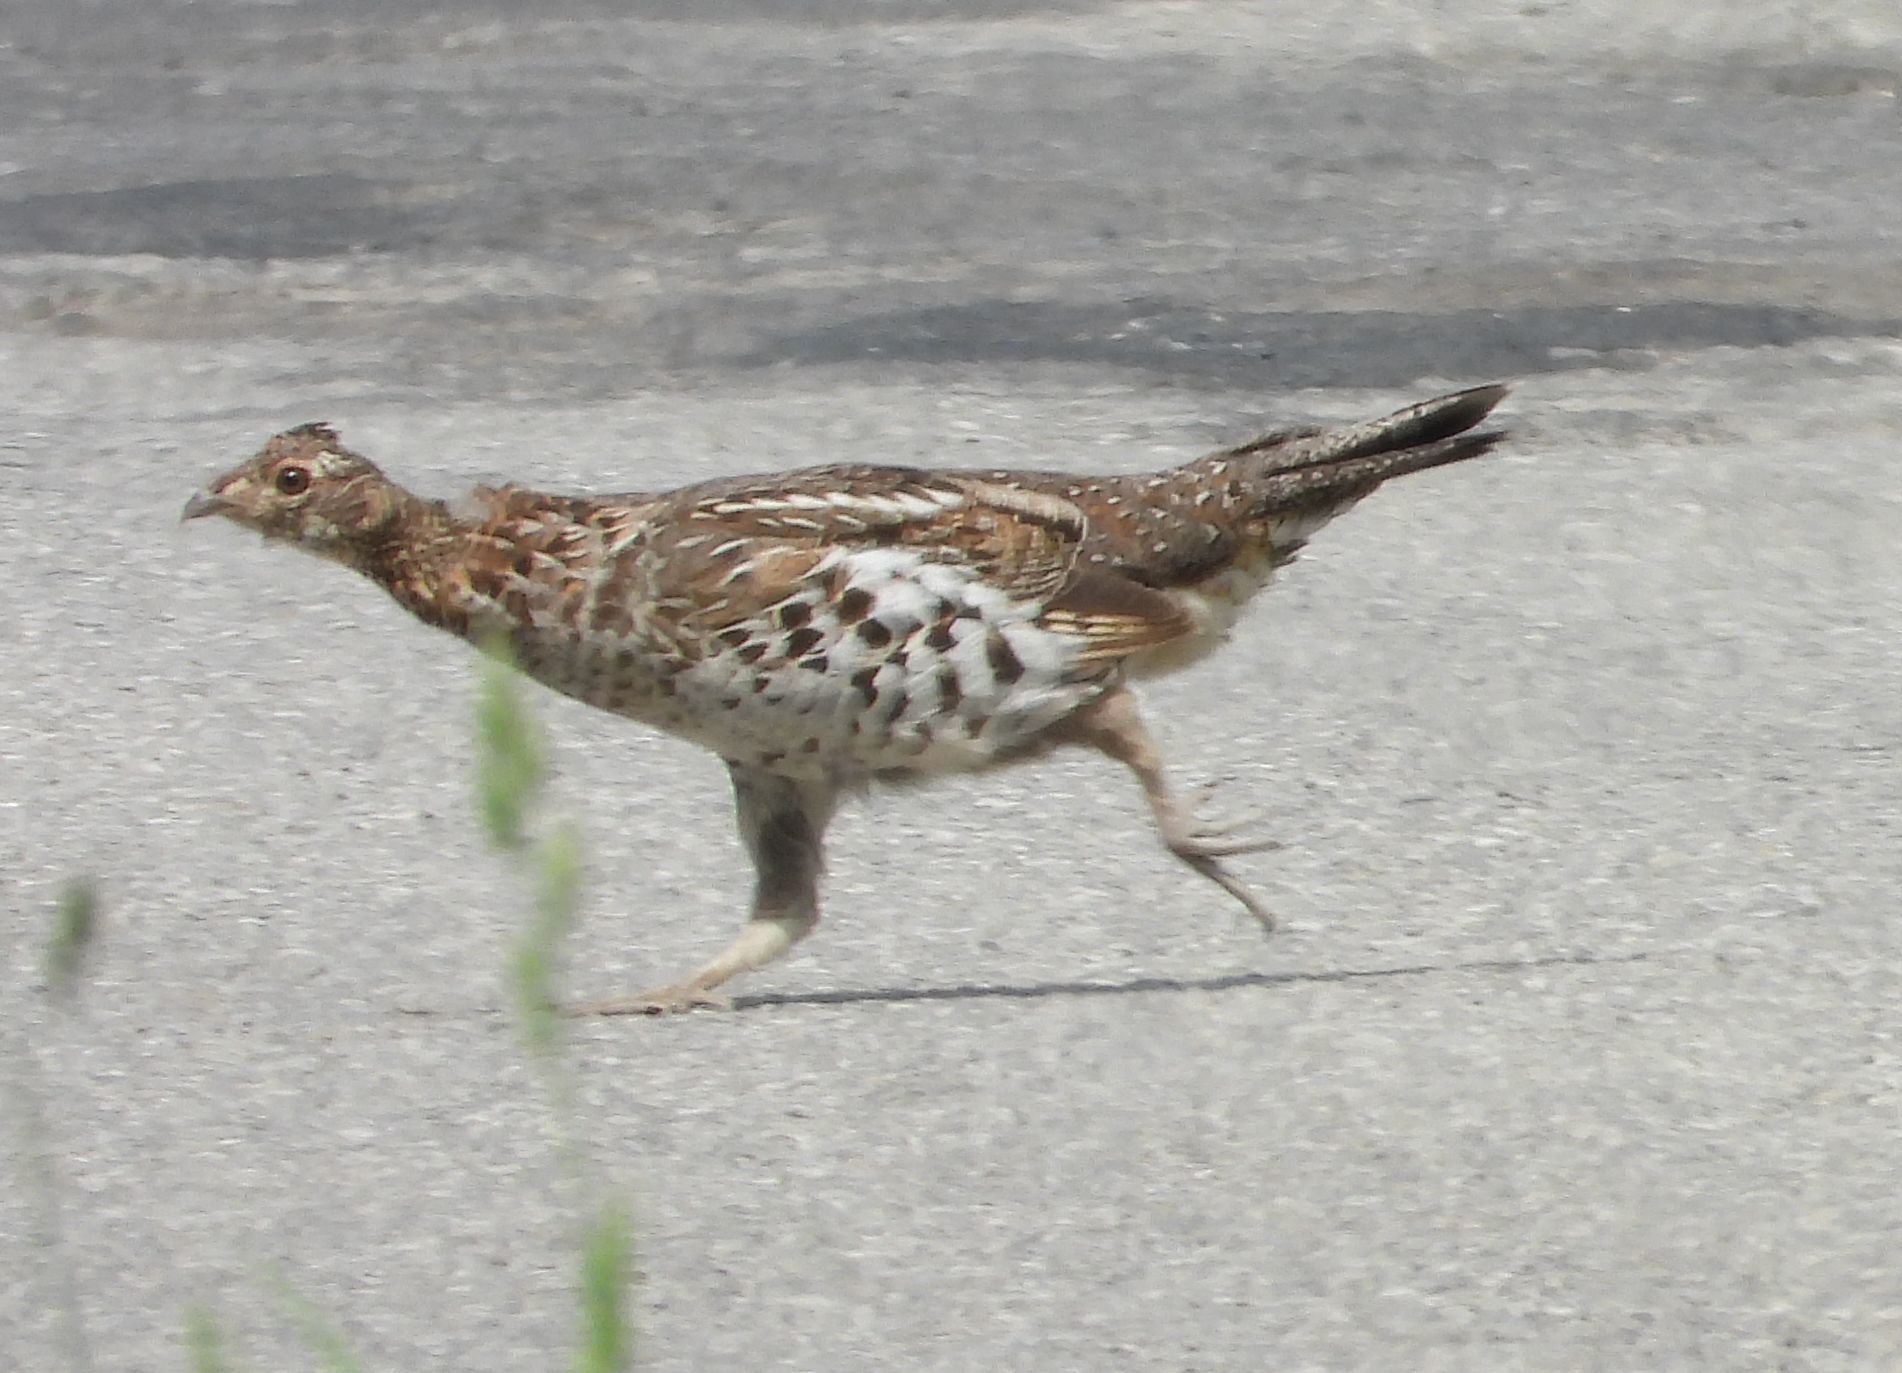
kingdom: Animalia
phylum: Chordata
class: Aves
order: Galliformes
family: Phasianidae
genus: Bonasa
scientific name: Bonasa umbellus
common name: Ruffed grouse
